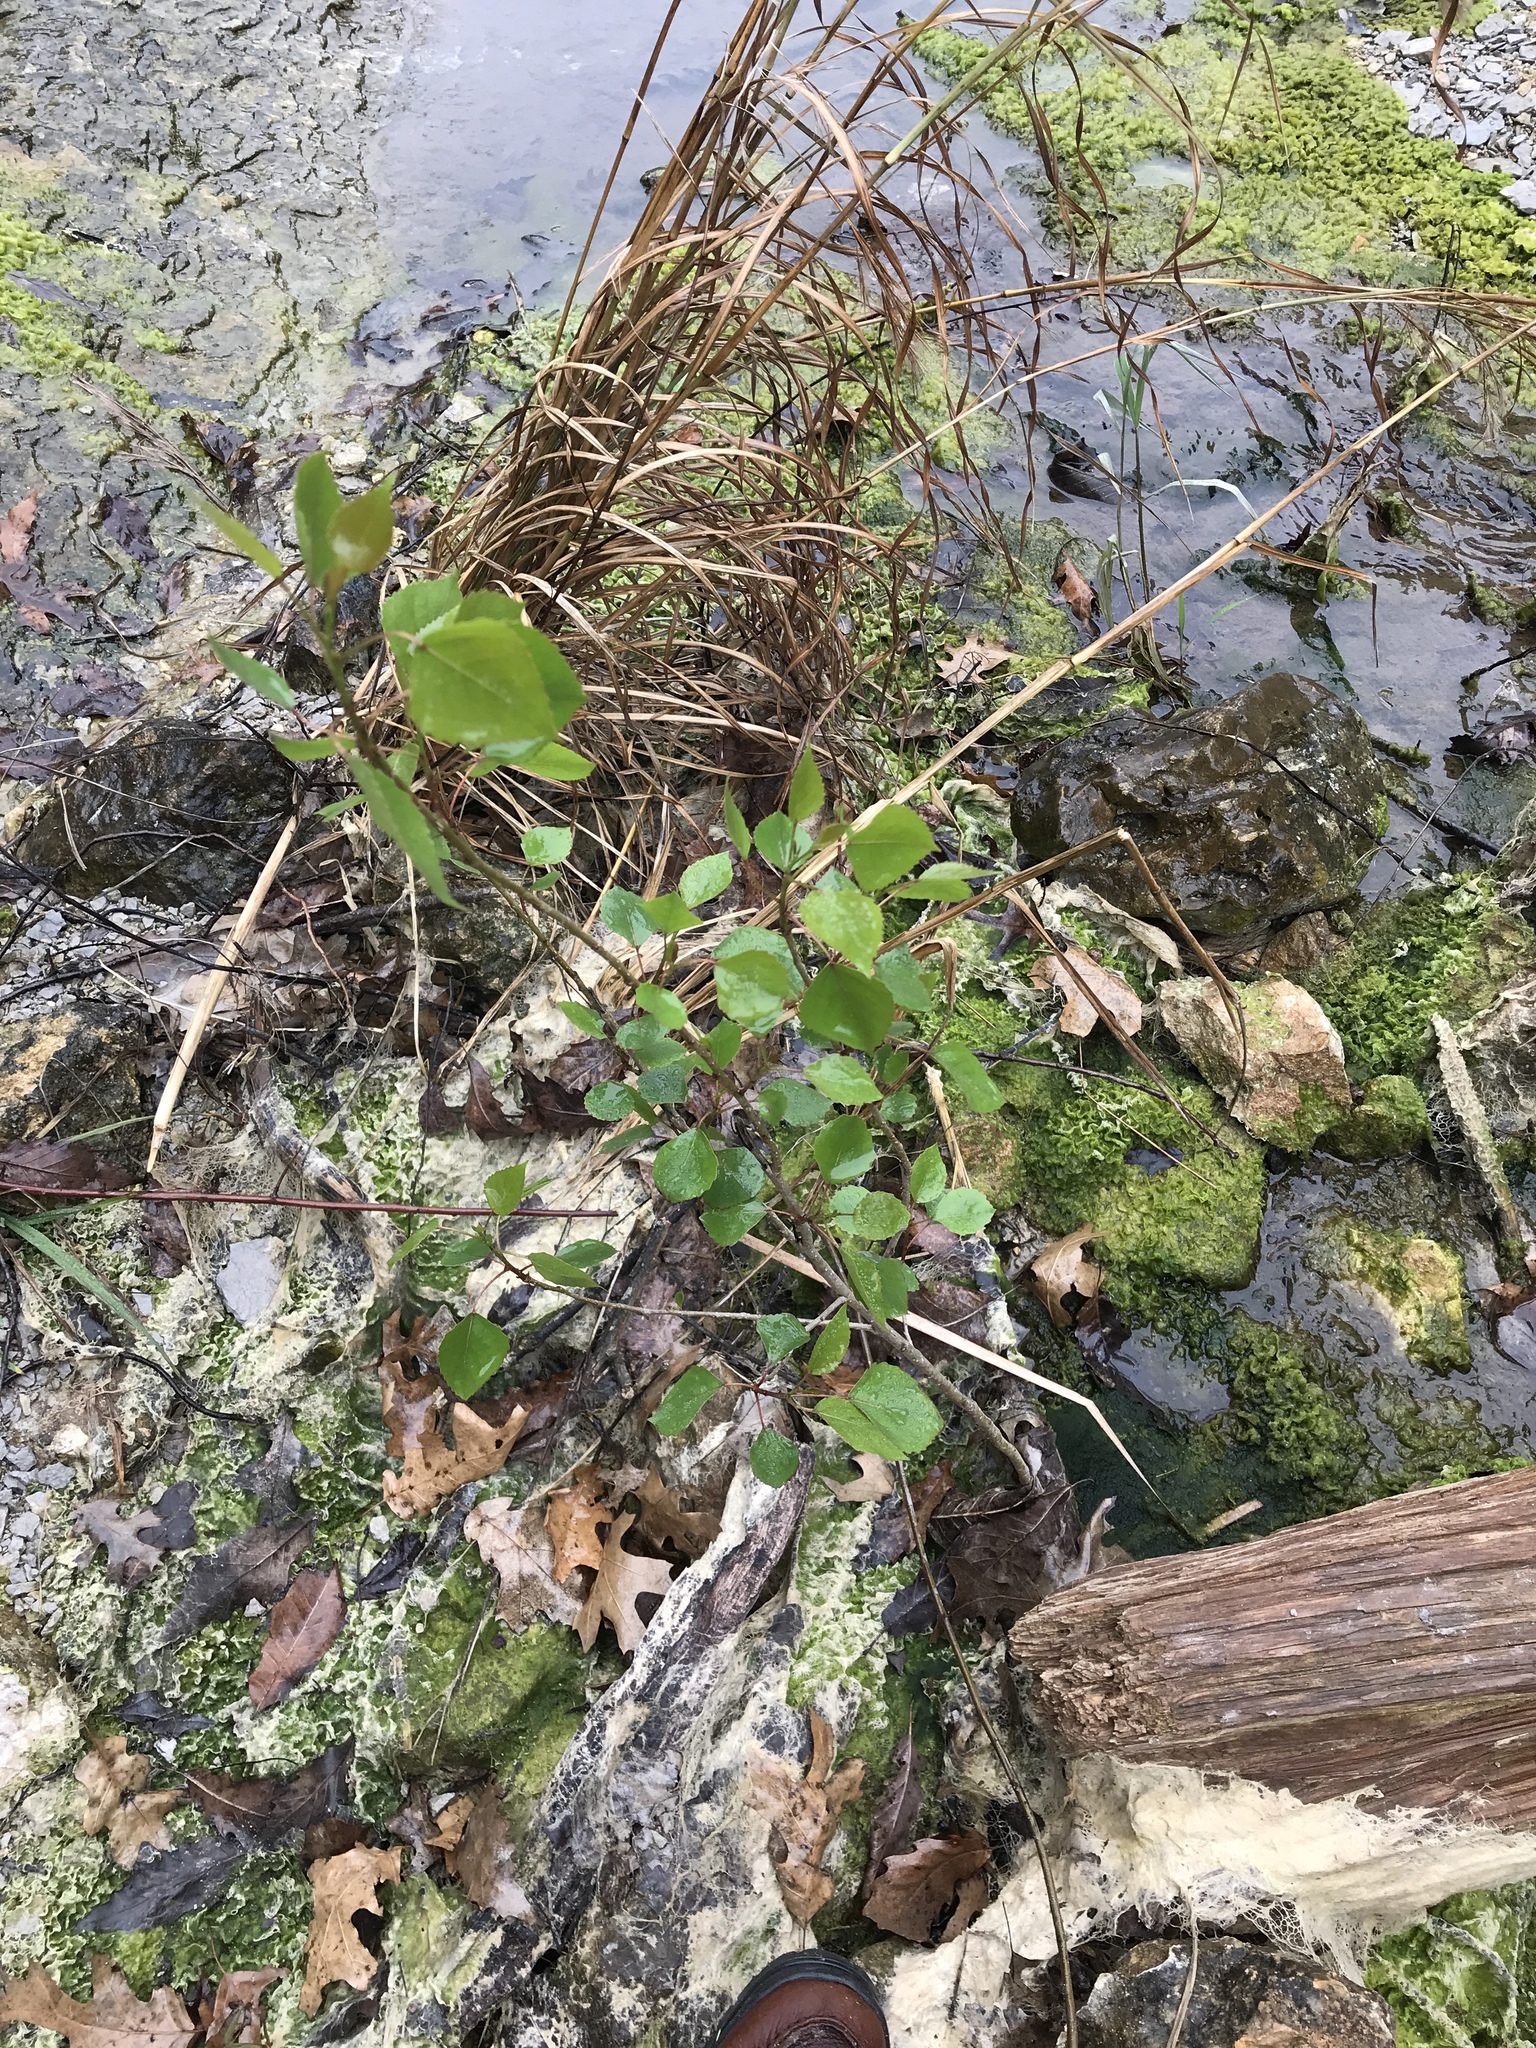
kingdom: Plantae
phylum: Tracheophyta
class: Magnoliopsida
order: Malpighiales
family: Salicaceae
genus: Populus
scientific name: Populus deltoides
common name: Eastern cottonwood
